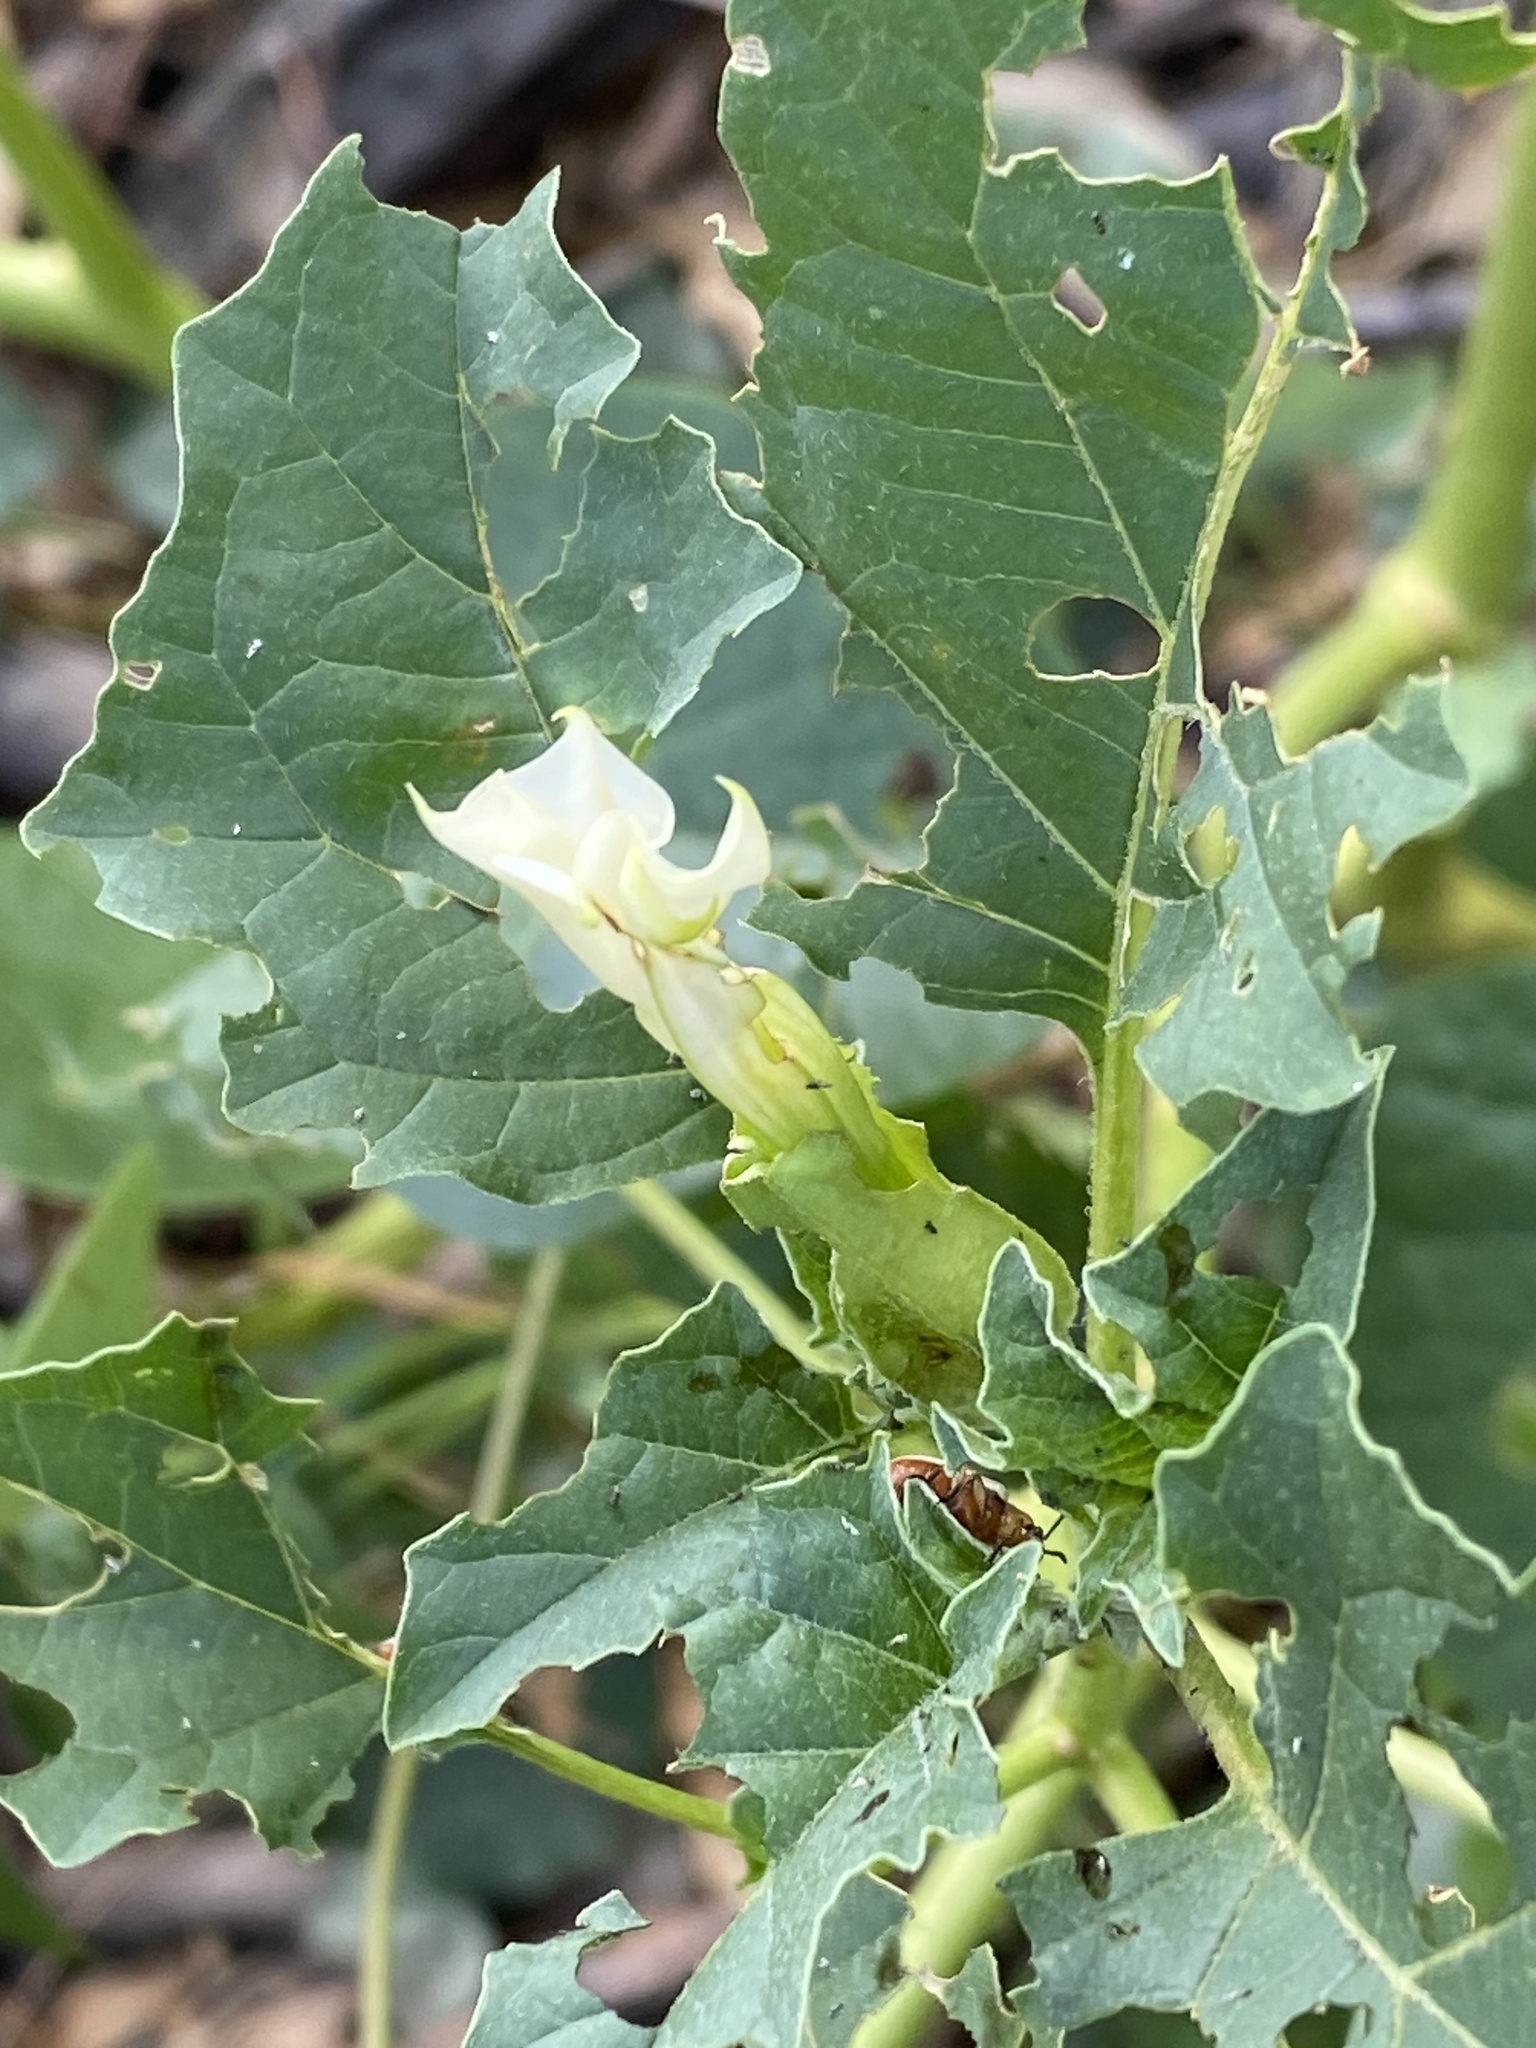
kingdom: Plantae
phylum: Tracheophyta
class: Magnoliopsida
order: Solanales
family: Solanaceae
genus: Datura
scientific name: Datura ferox
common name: Angel's-trumpets
